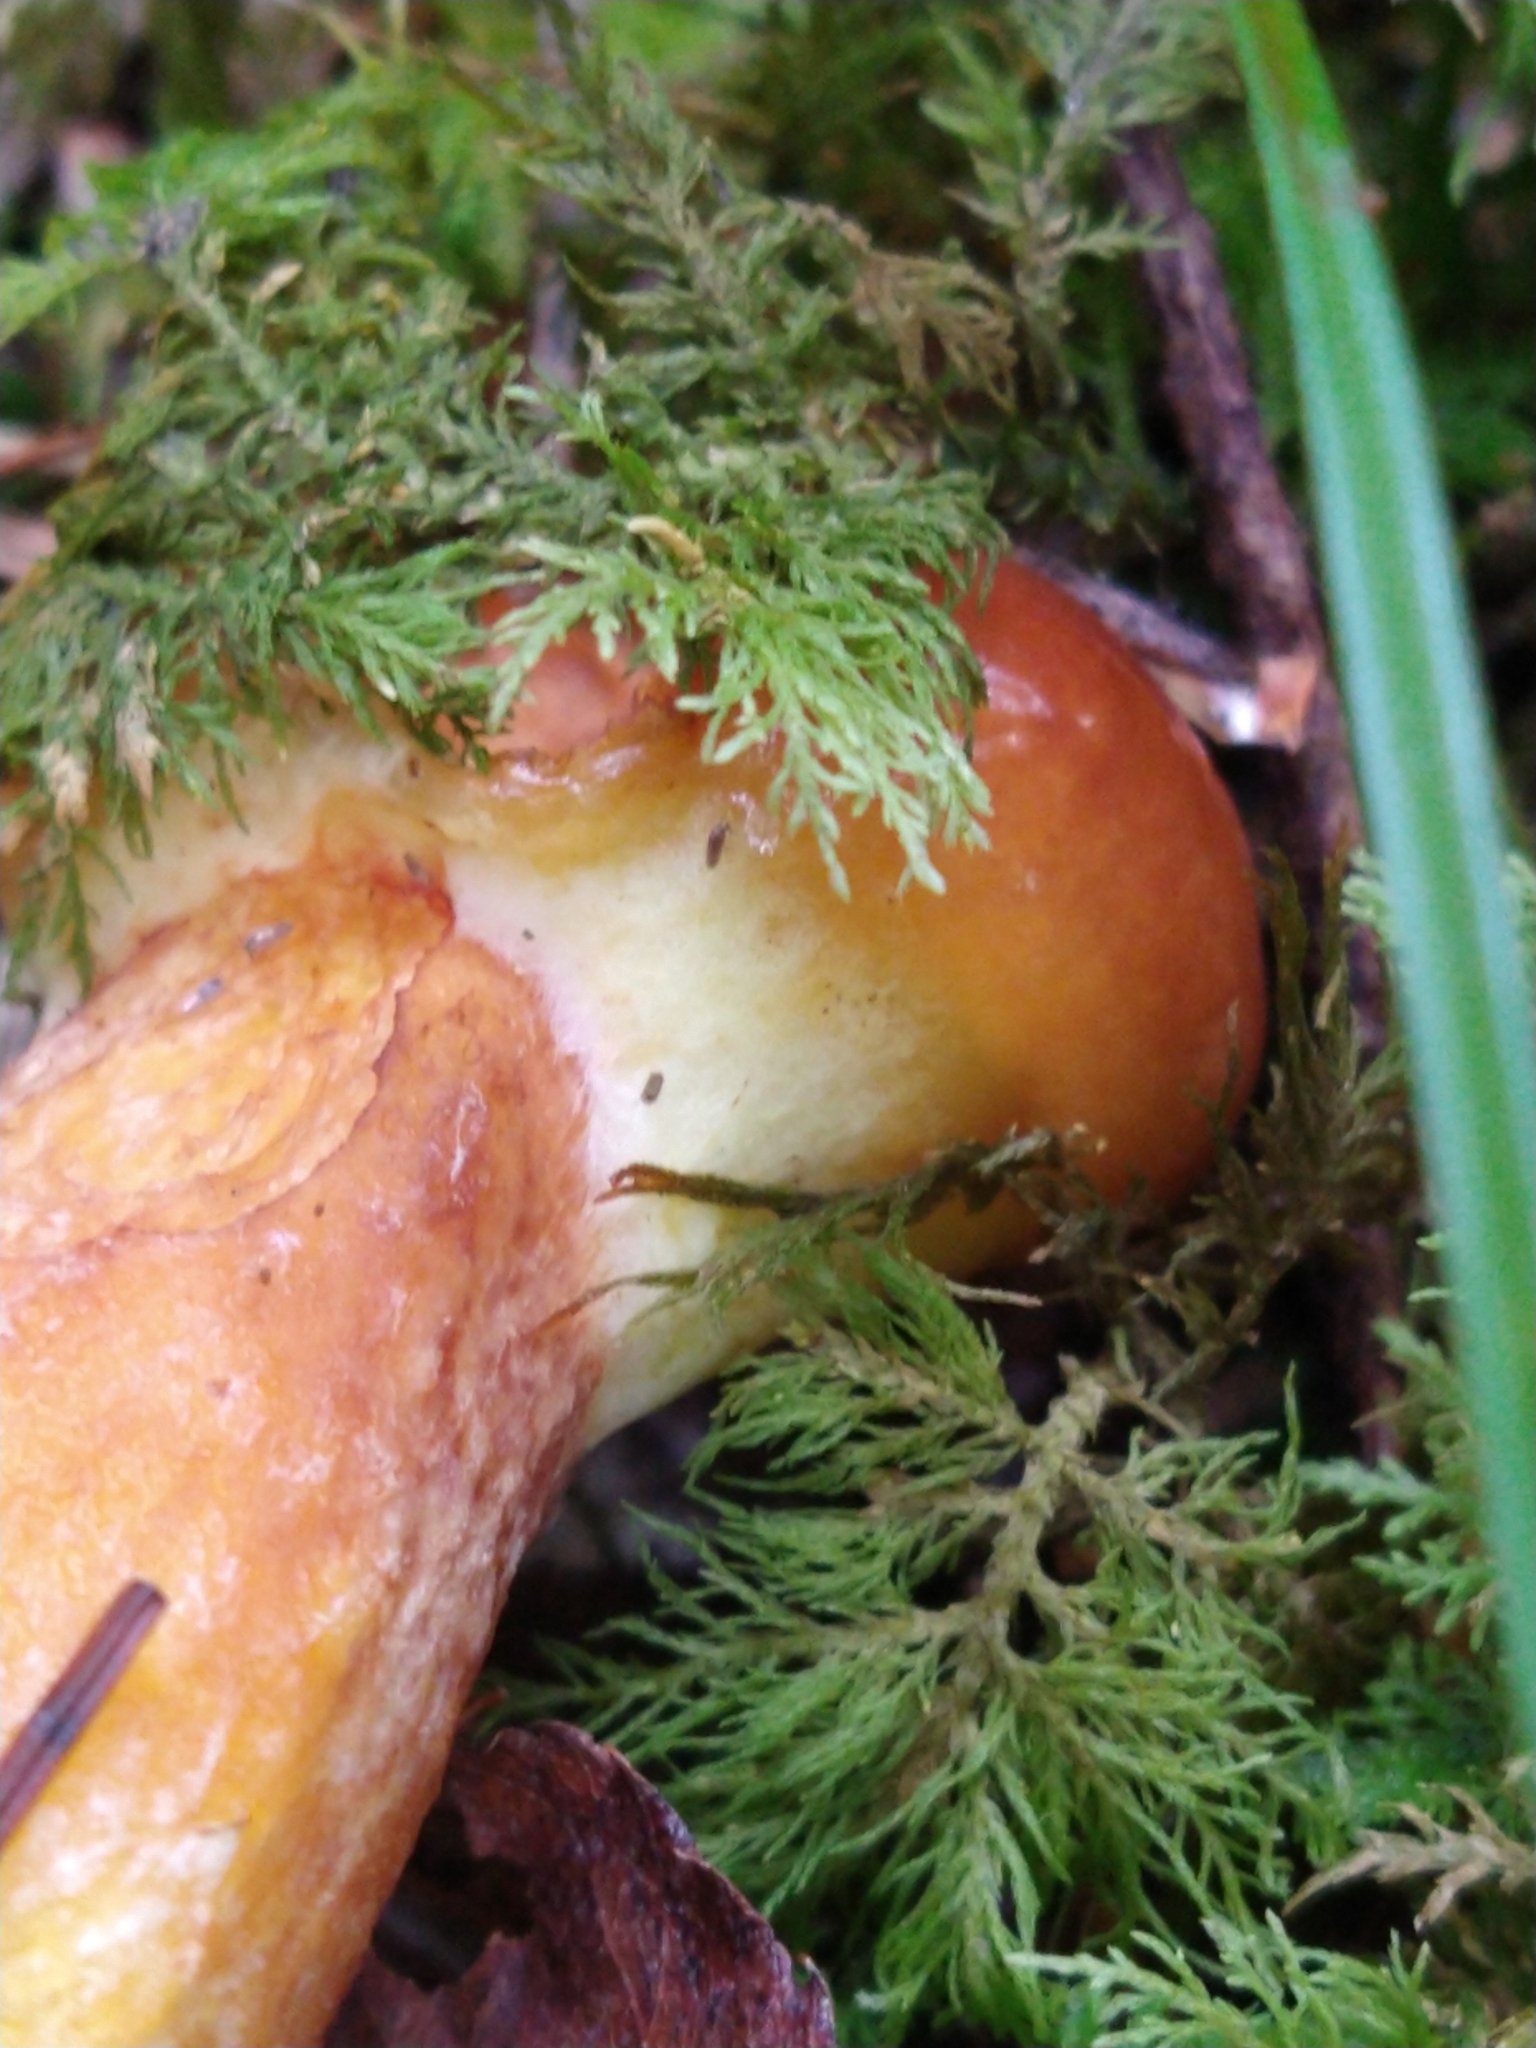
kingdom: Fungi
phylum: Basidiomycota
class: Agaricomycetes
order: Boletales
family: Suillaceae
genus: Suillus
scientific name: Suillus grevillei
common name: Larch bolete
